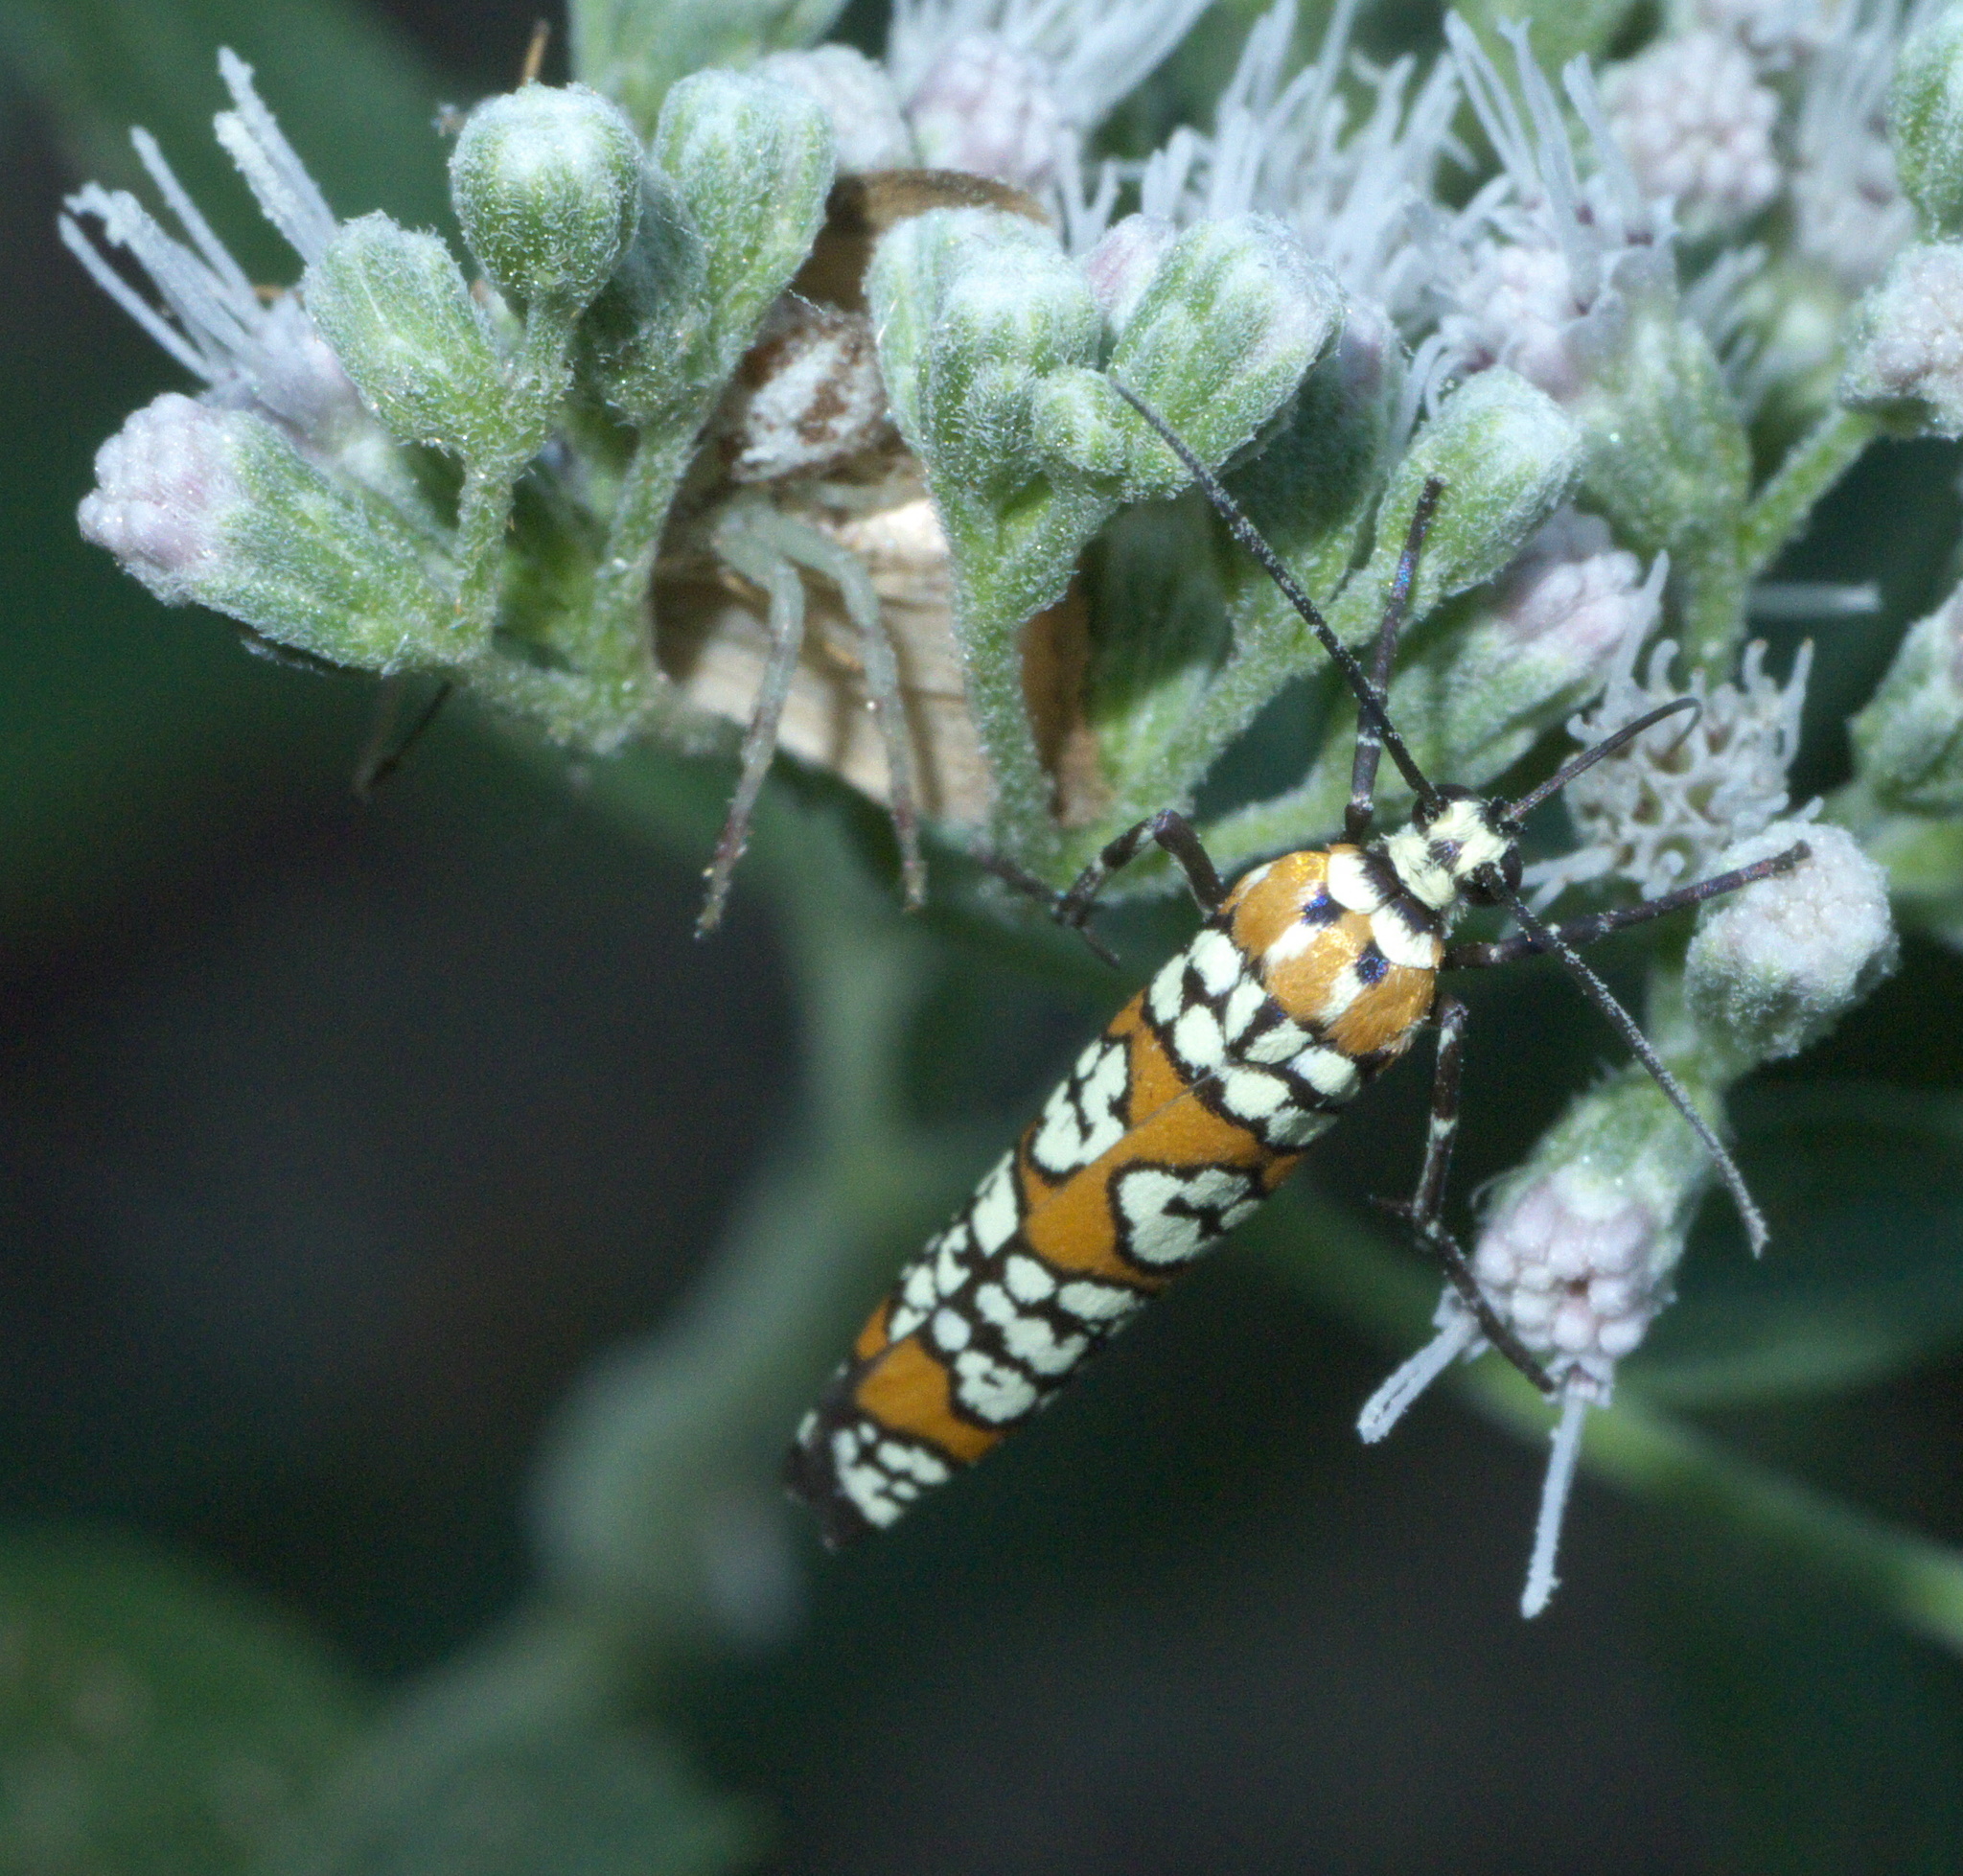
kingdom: Animalia
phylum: Arthropoda
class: Insecta
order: Lepidoptera
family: Attevidae
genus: Atteva
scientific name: Atteva punctella
